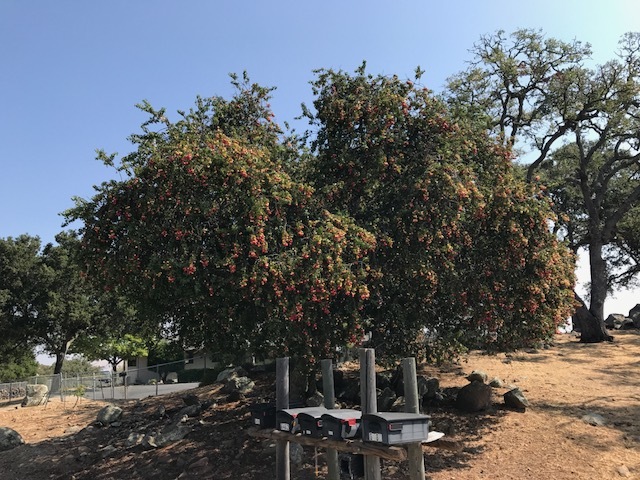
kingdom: Plantae
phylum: Tracheophyta
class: Magnoliopsida
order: Rosales
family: Rosaceae
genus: Prunus
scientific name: Prunus ilicifolia
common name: Hollyleaf cherry
